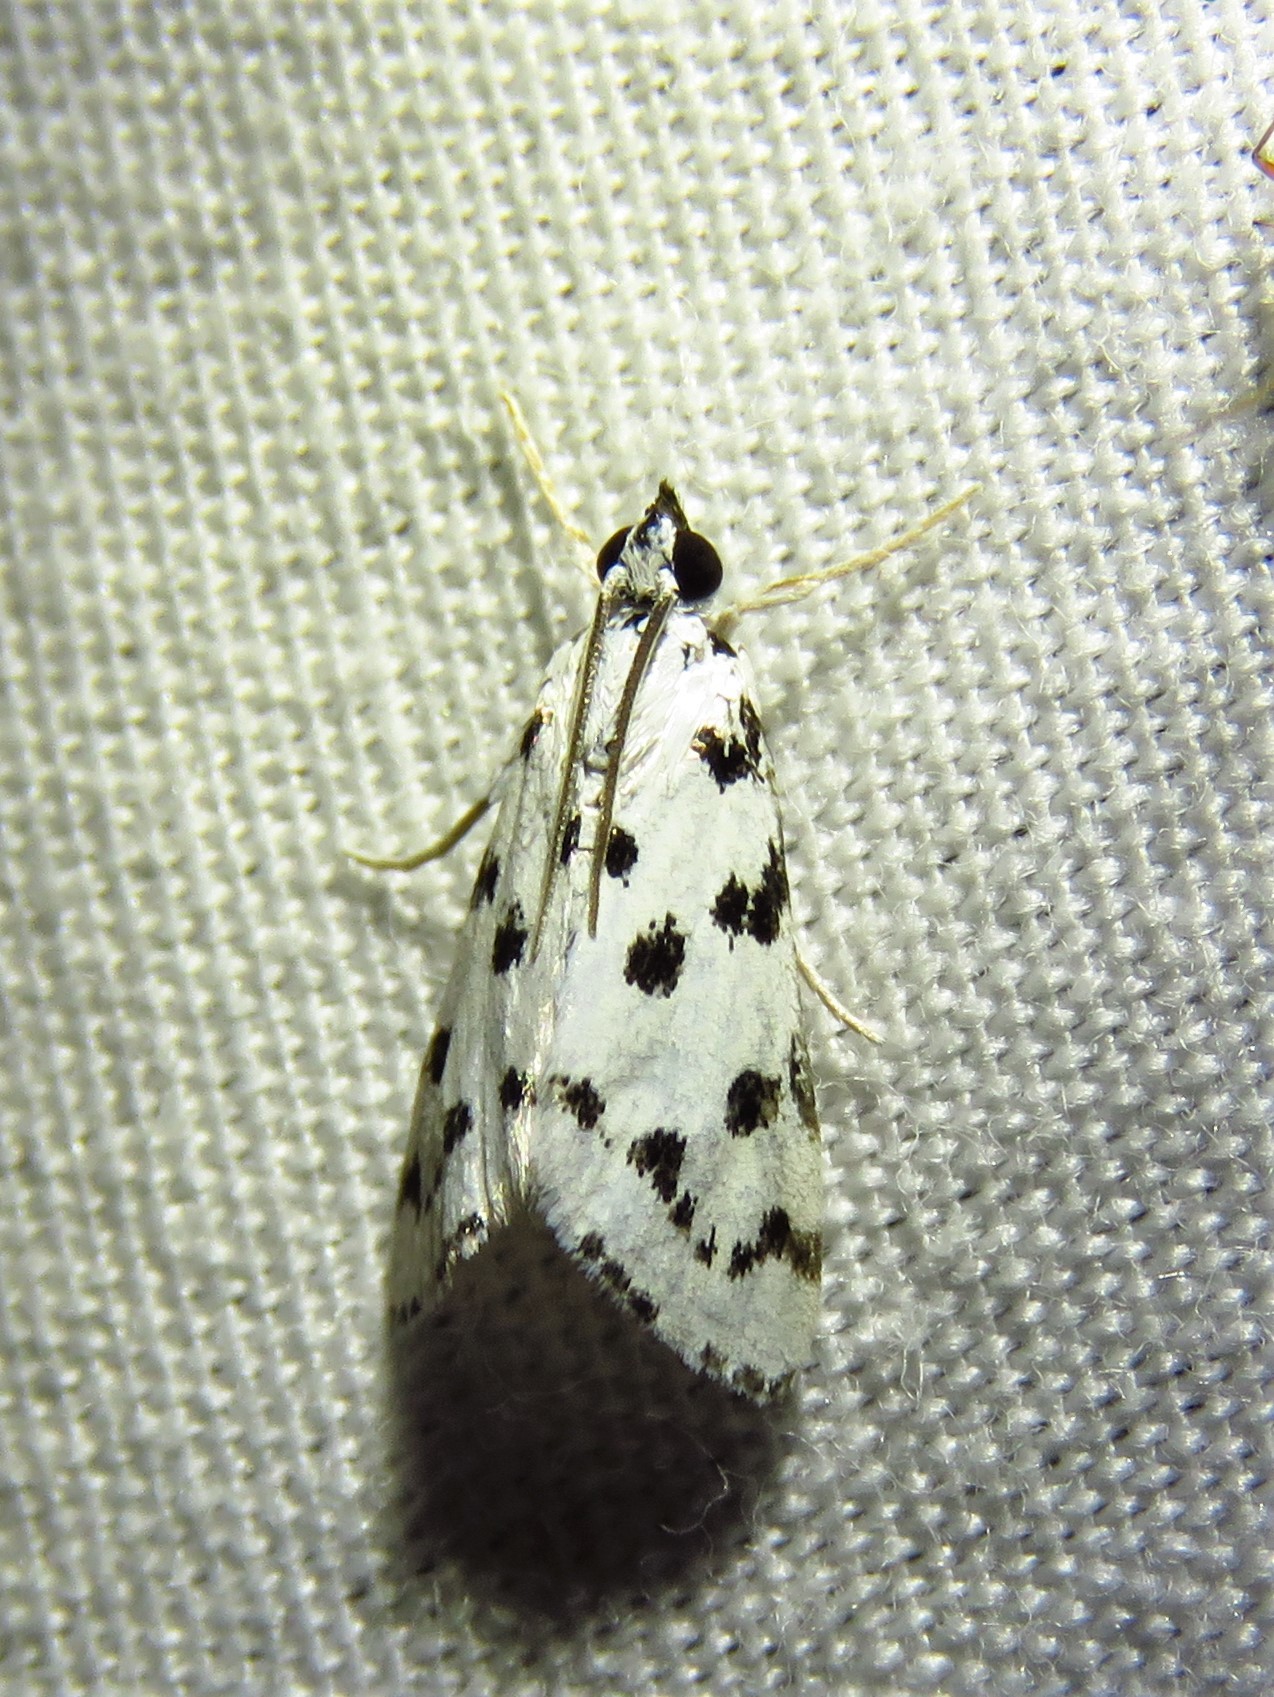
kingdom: Animalia
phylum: Arthropoda
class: Insecta
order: Lepidoptera
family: Crambidae
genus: Eustixia
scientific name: Eustixia pupula
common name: American cabbage pearl
